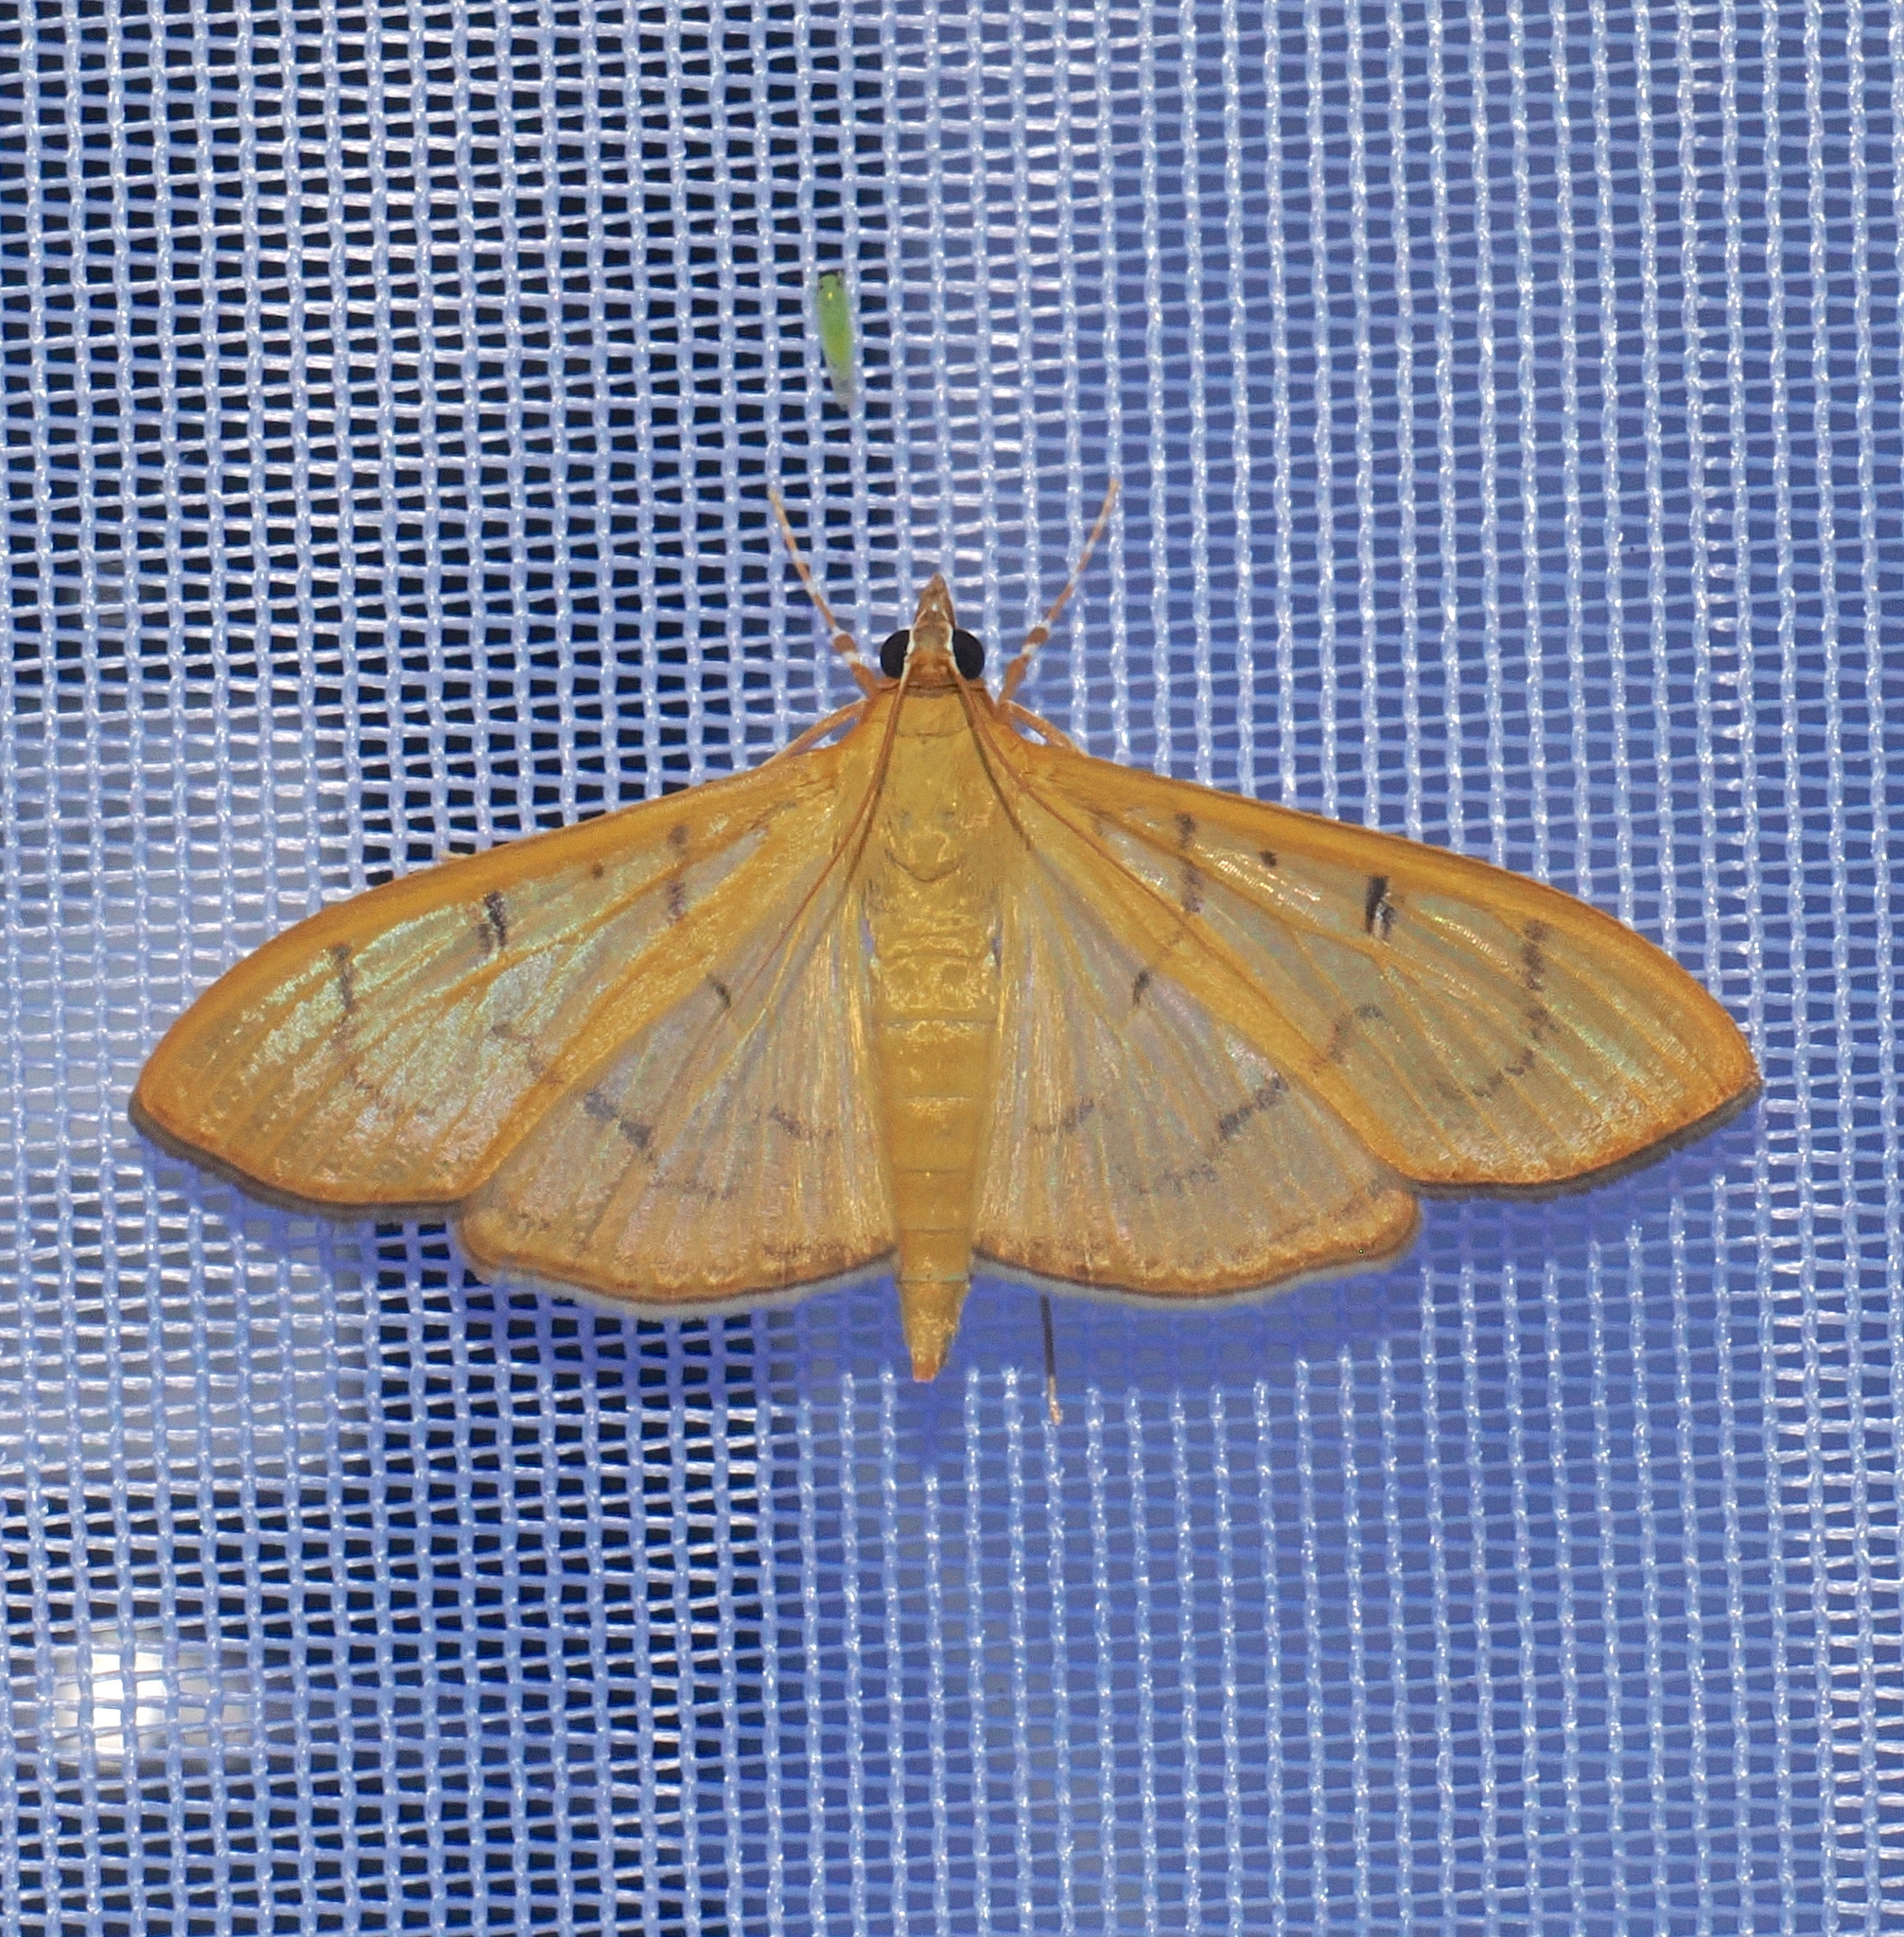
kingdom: Animalia
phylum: Arthropoda
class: Insecta
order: Lepidoptera
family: Crambidae
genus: Condylorrhiza
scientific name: Condylorrhiza vestigialis
